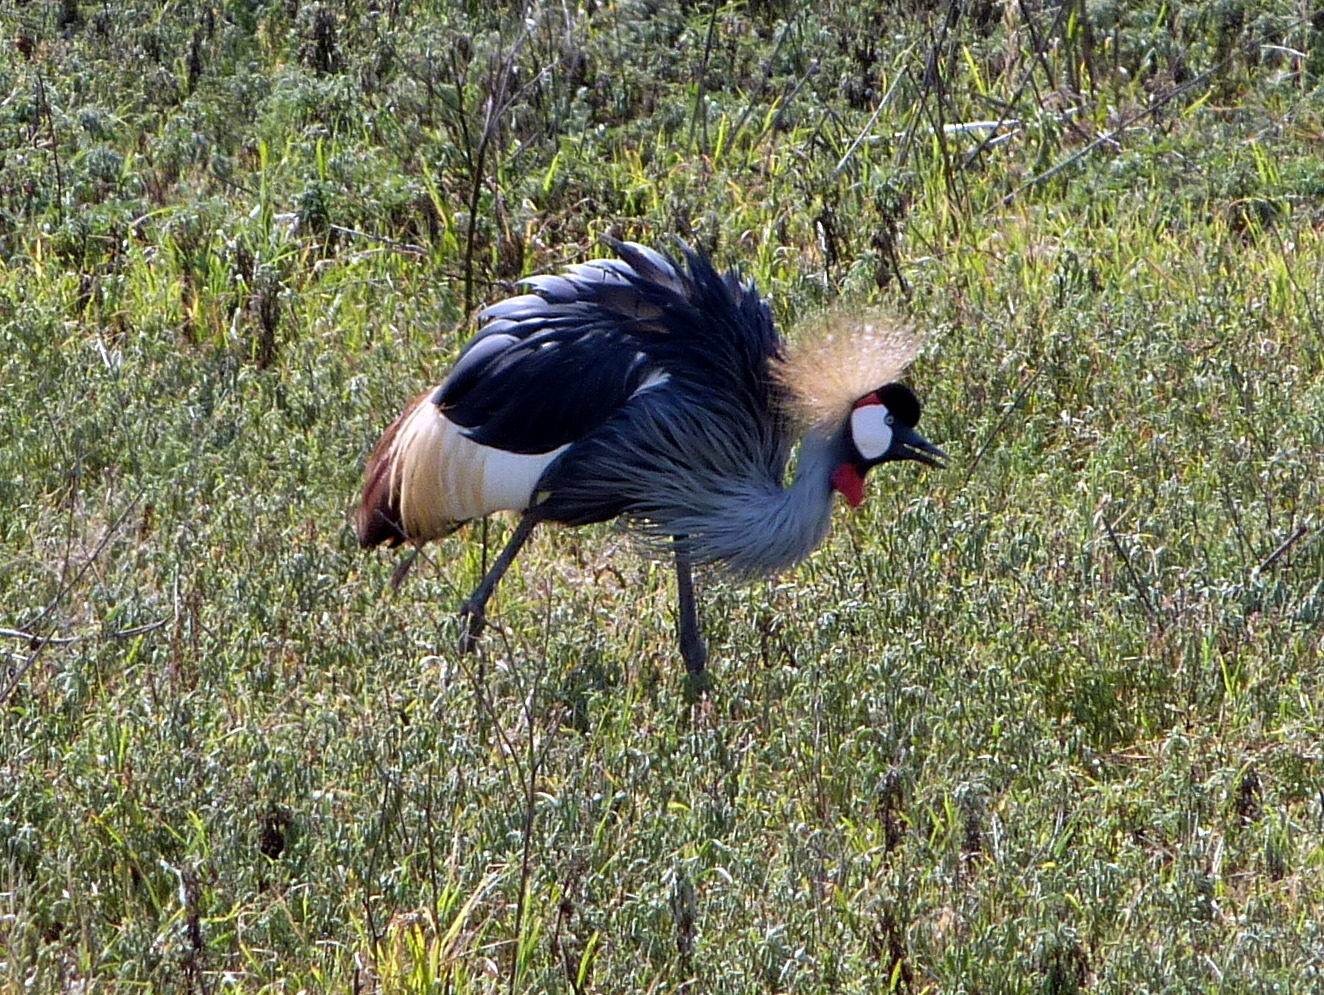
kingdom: Animalia
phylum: Chordata
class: Aves
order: Gruiformes
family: Gruidae
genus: Balearica
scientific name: Balearica regulorum
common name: Grey crowned crane
